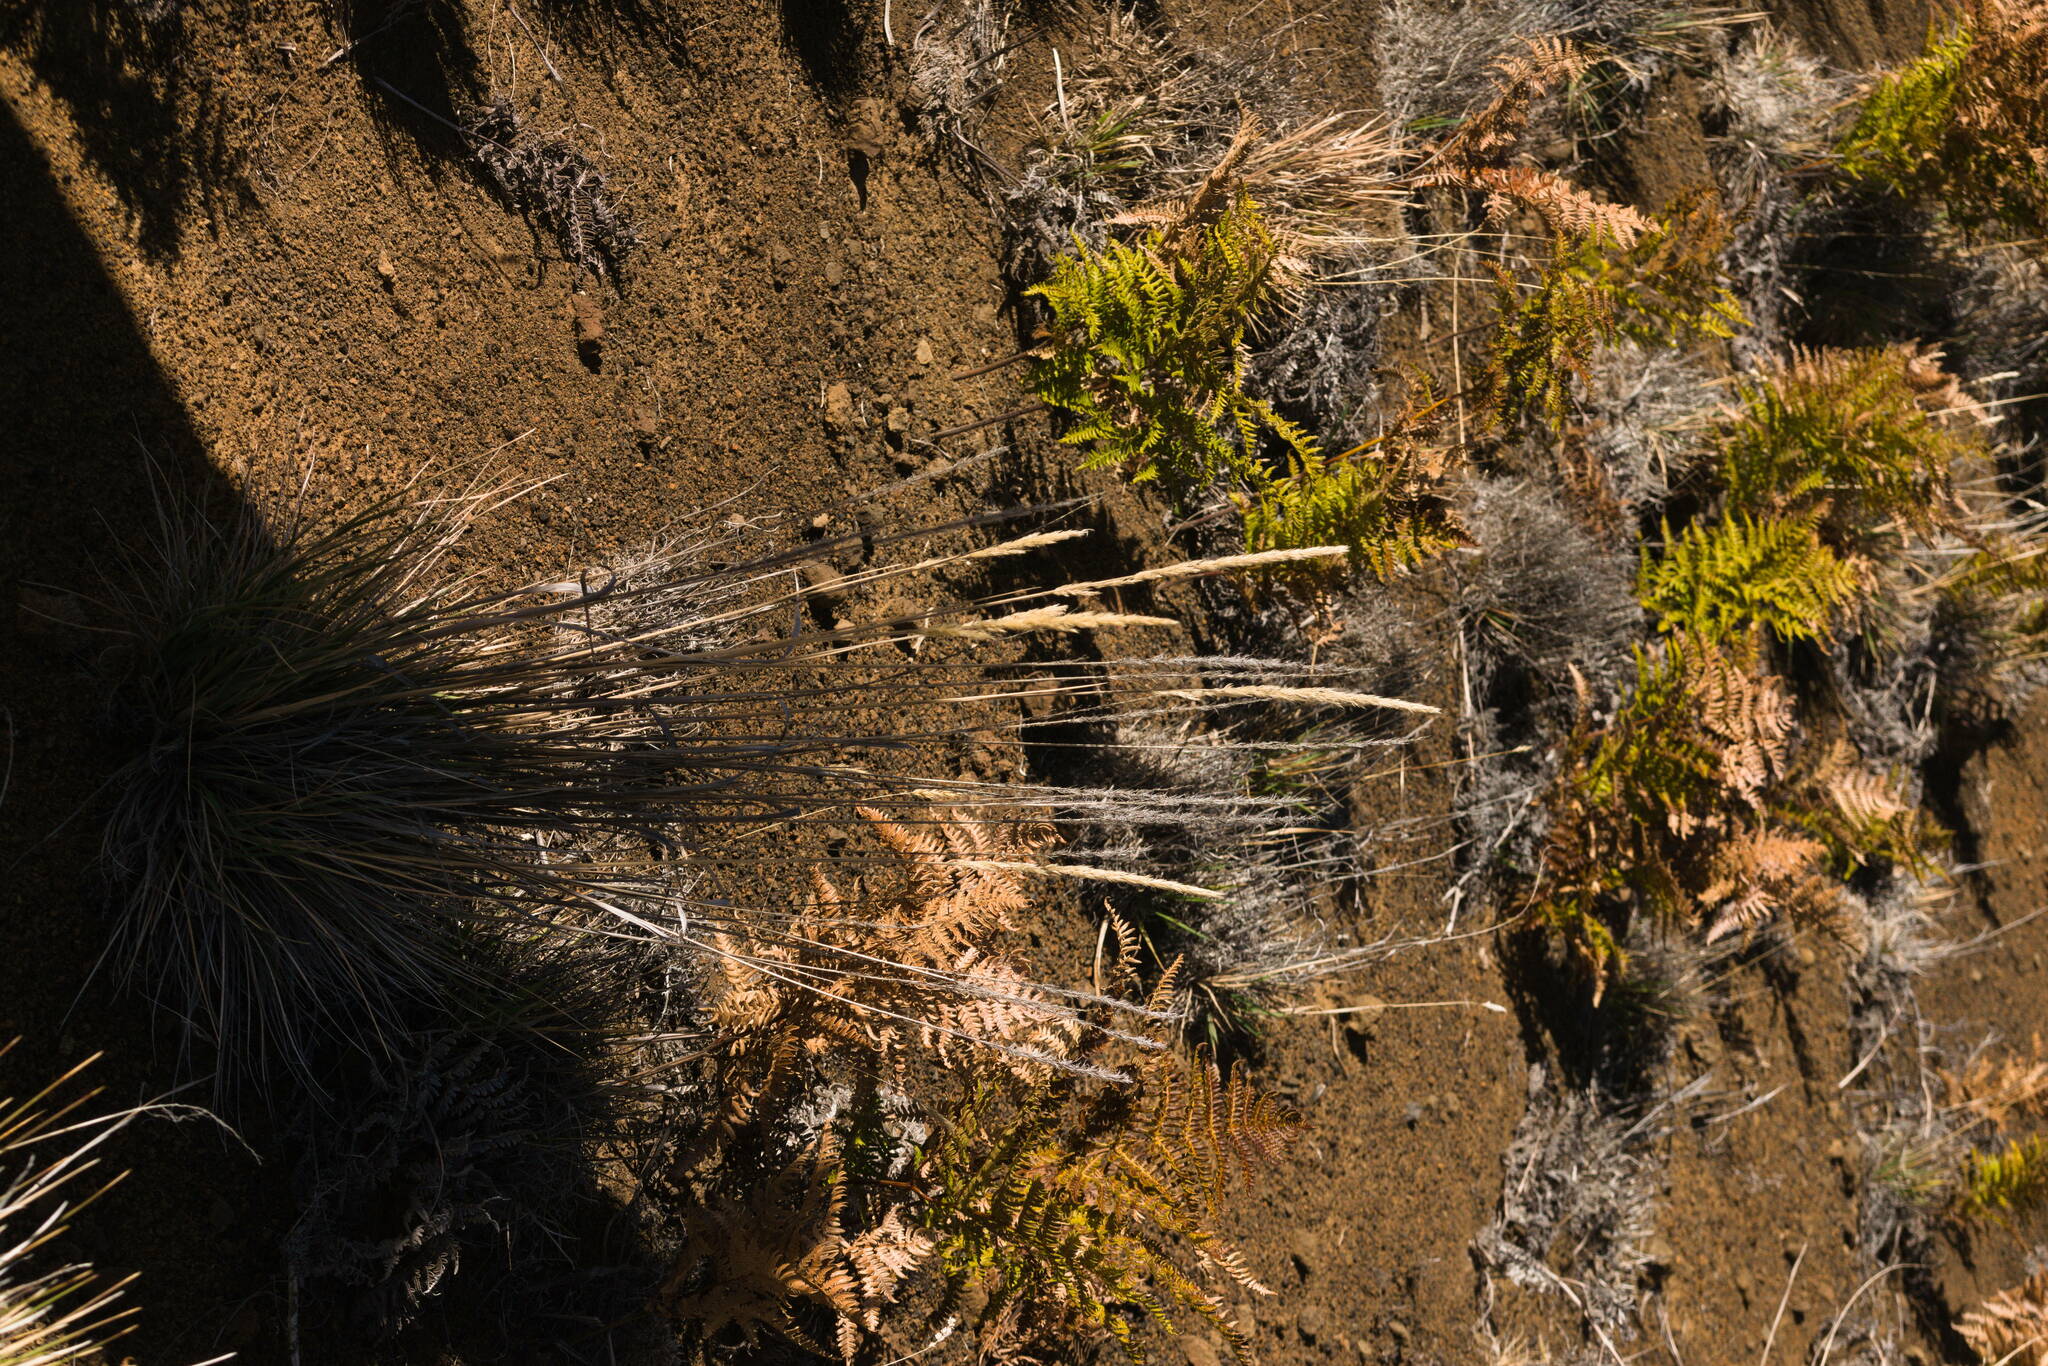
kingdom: Plantae
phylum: Tracheophyta
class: Liliopsida
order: Poales
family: Poaceae
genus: Trisetum
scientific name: Trisetum glomeratum
